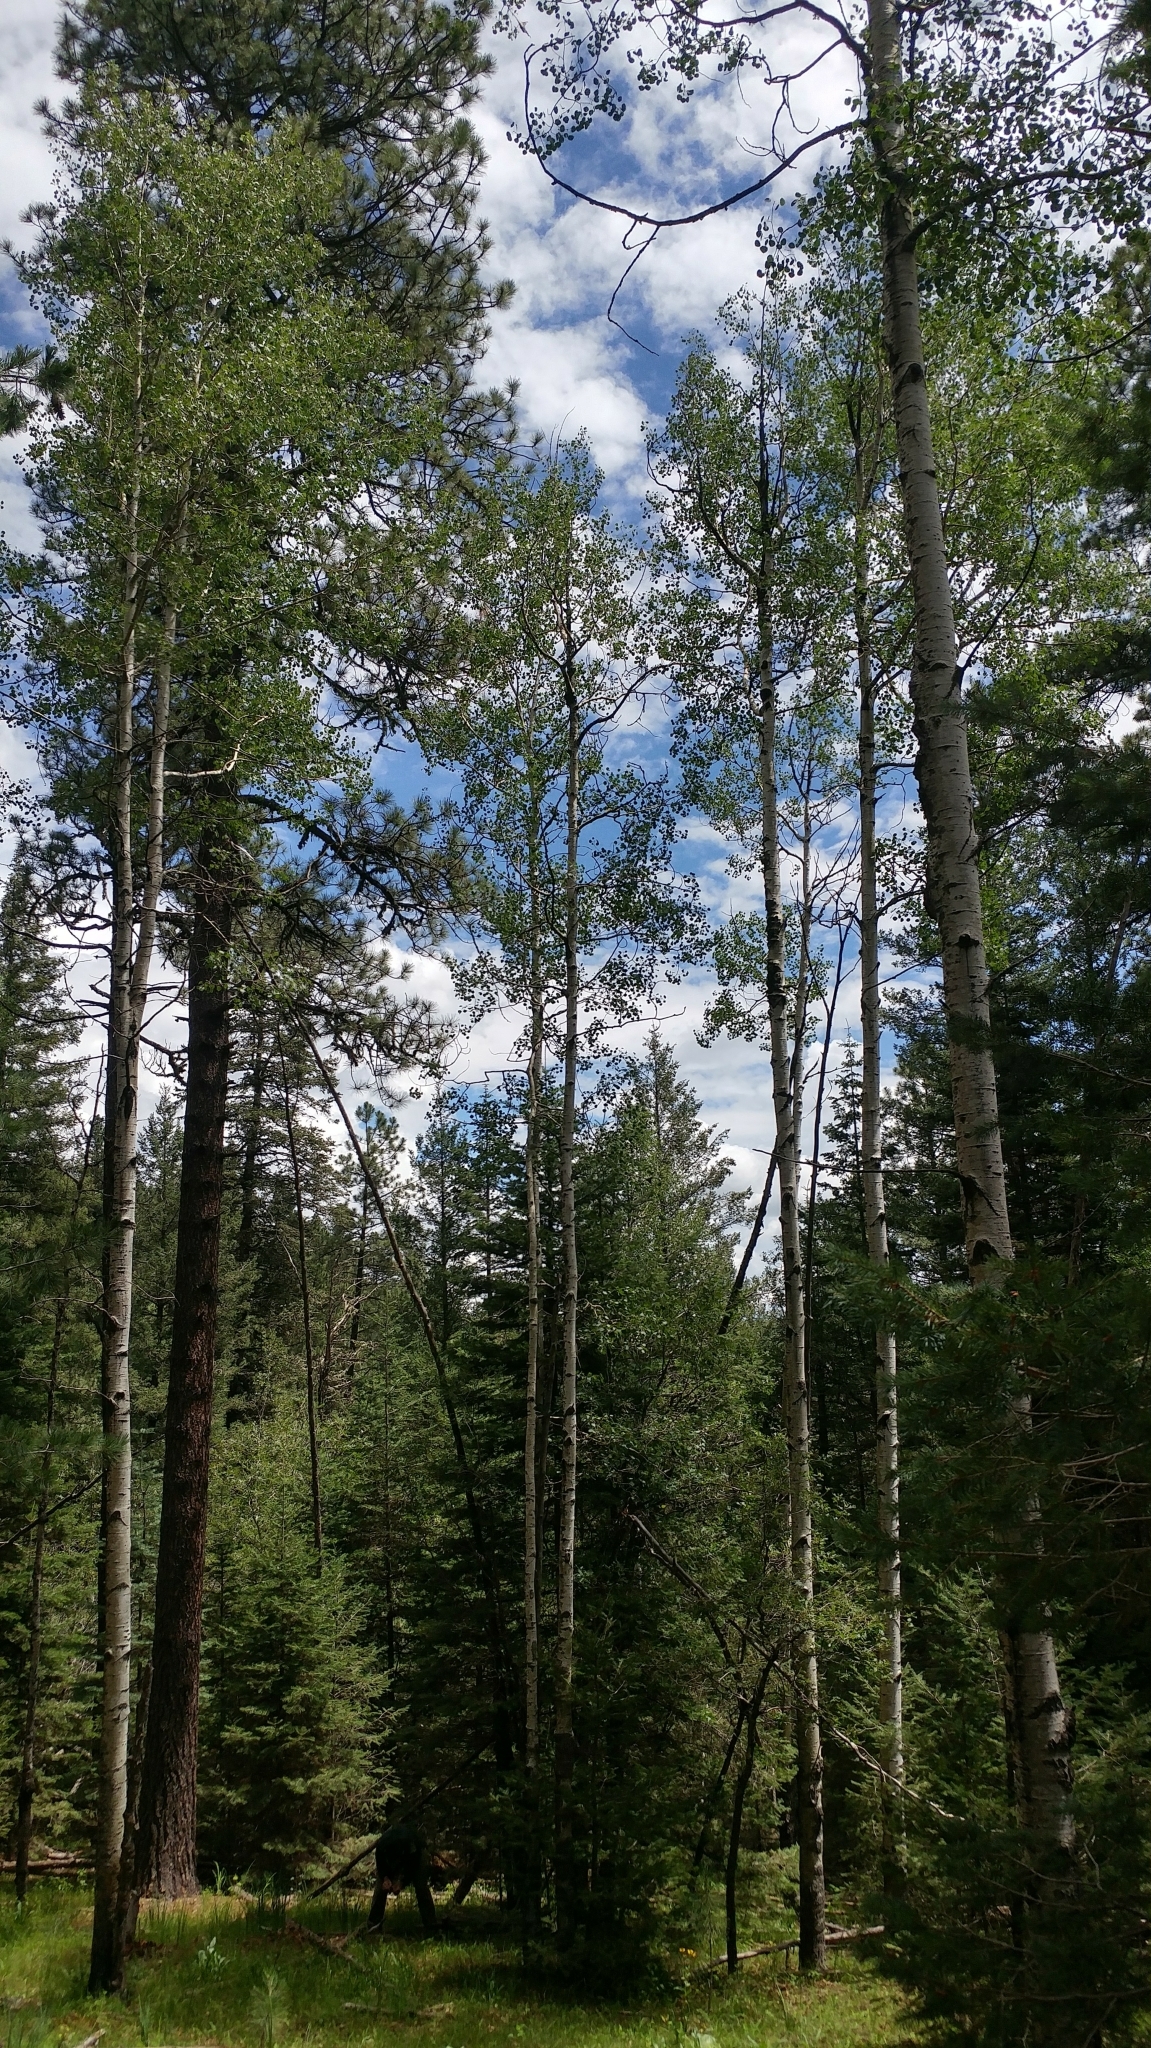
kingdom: Plantae
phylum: Tracheophyta
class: Magnoliopsida
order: Malpighiales
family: Salicaceae
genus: Populus
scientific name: Populus tremuloides
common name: Quaking aspen
